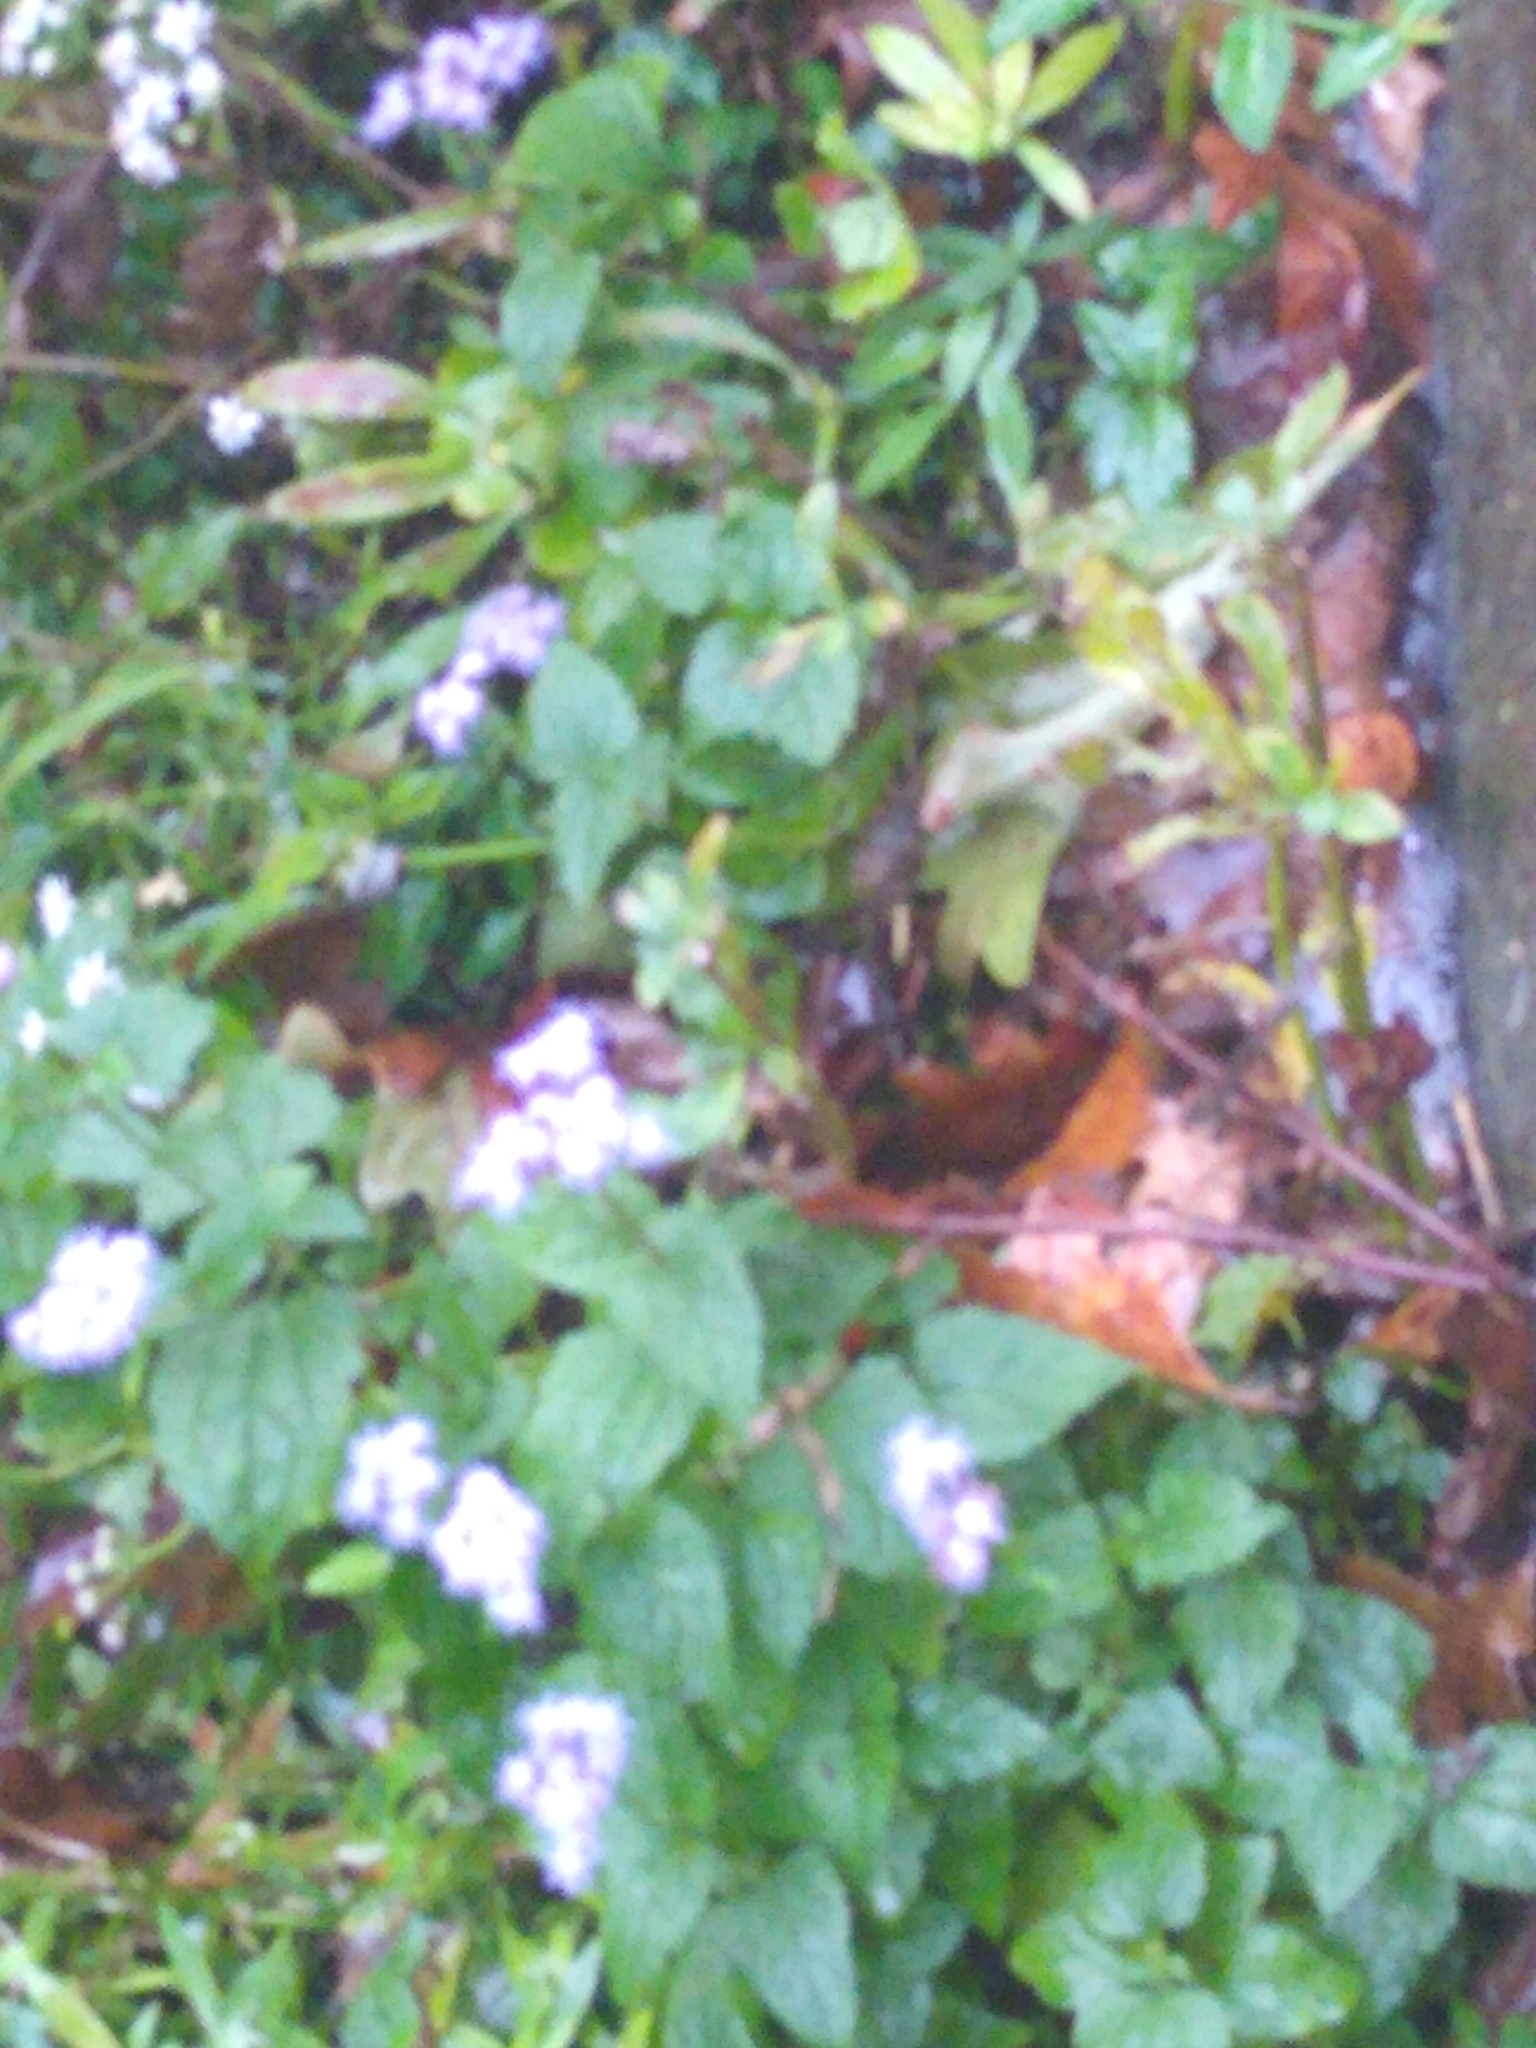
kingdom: Plantae
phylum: Tracheophyta
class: Magnoliopsida
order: Asterales
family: Asteraceae
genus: Conoclinium
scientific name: Conoclinium coelestinum
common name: Blue mistflower
